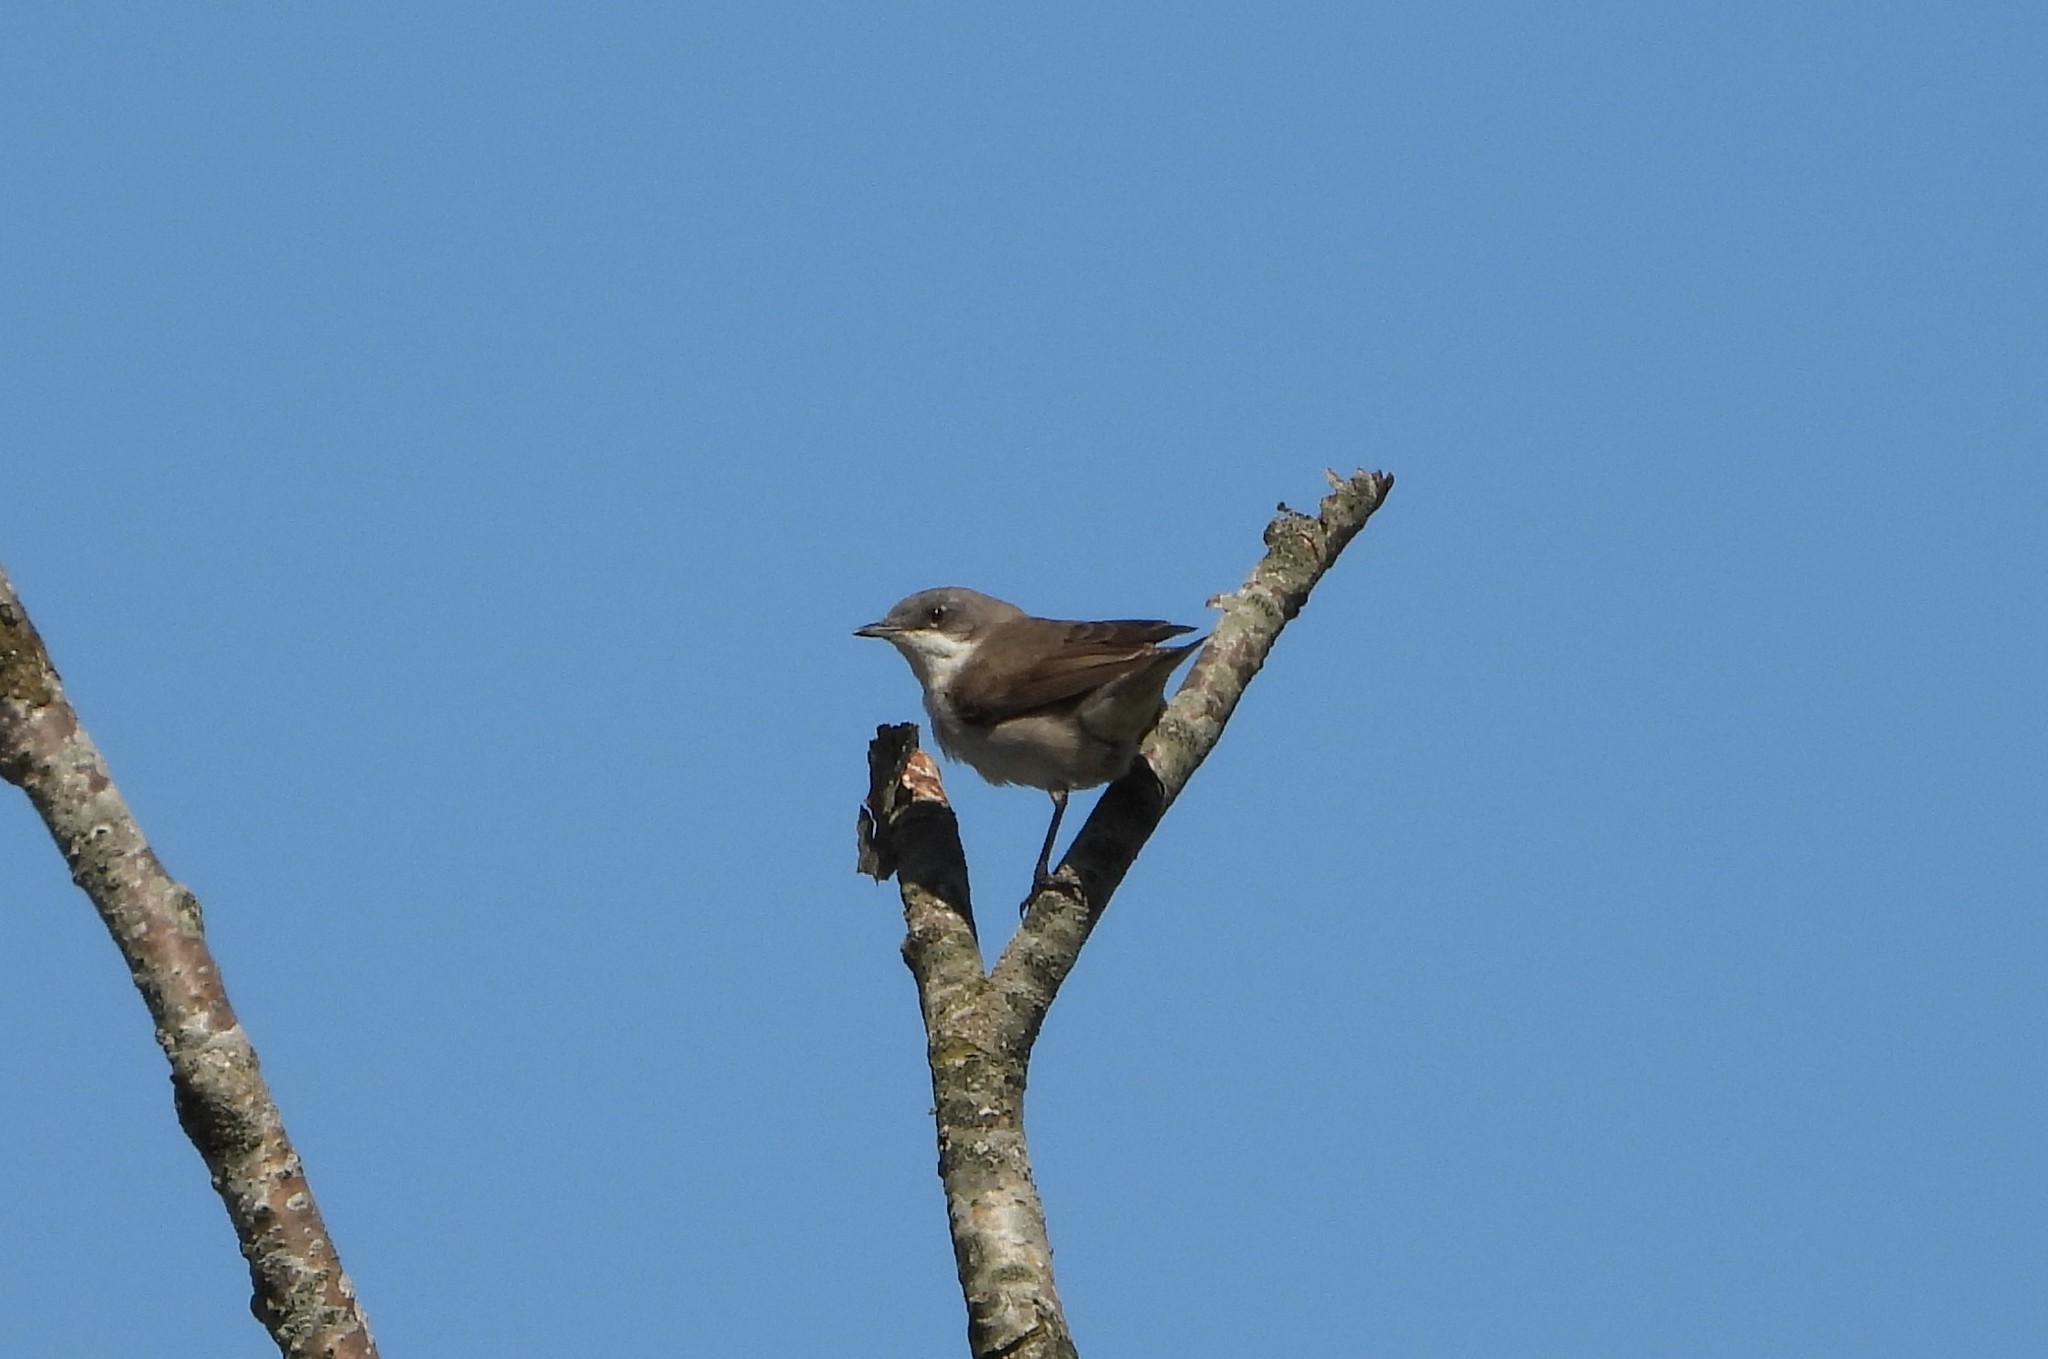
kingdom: Animalia
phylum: Chordata
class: Aves
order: Passeriformes
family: Sylviidae
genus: Sylvia
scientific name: Sylvia curruca
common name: Lesser whitethroat
